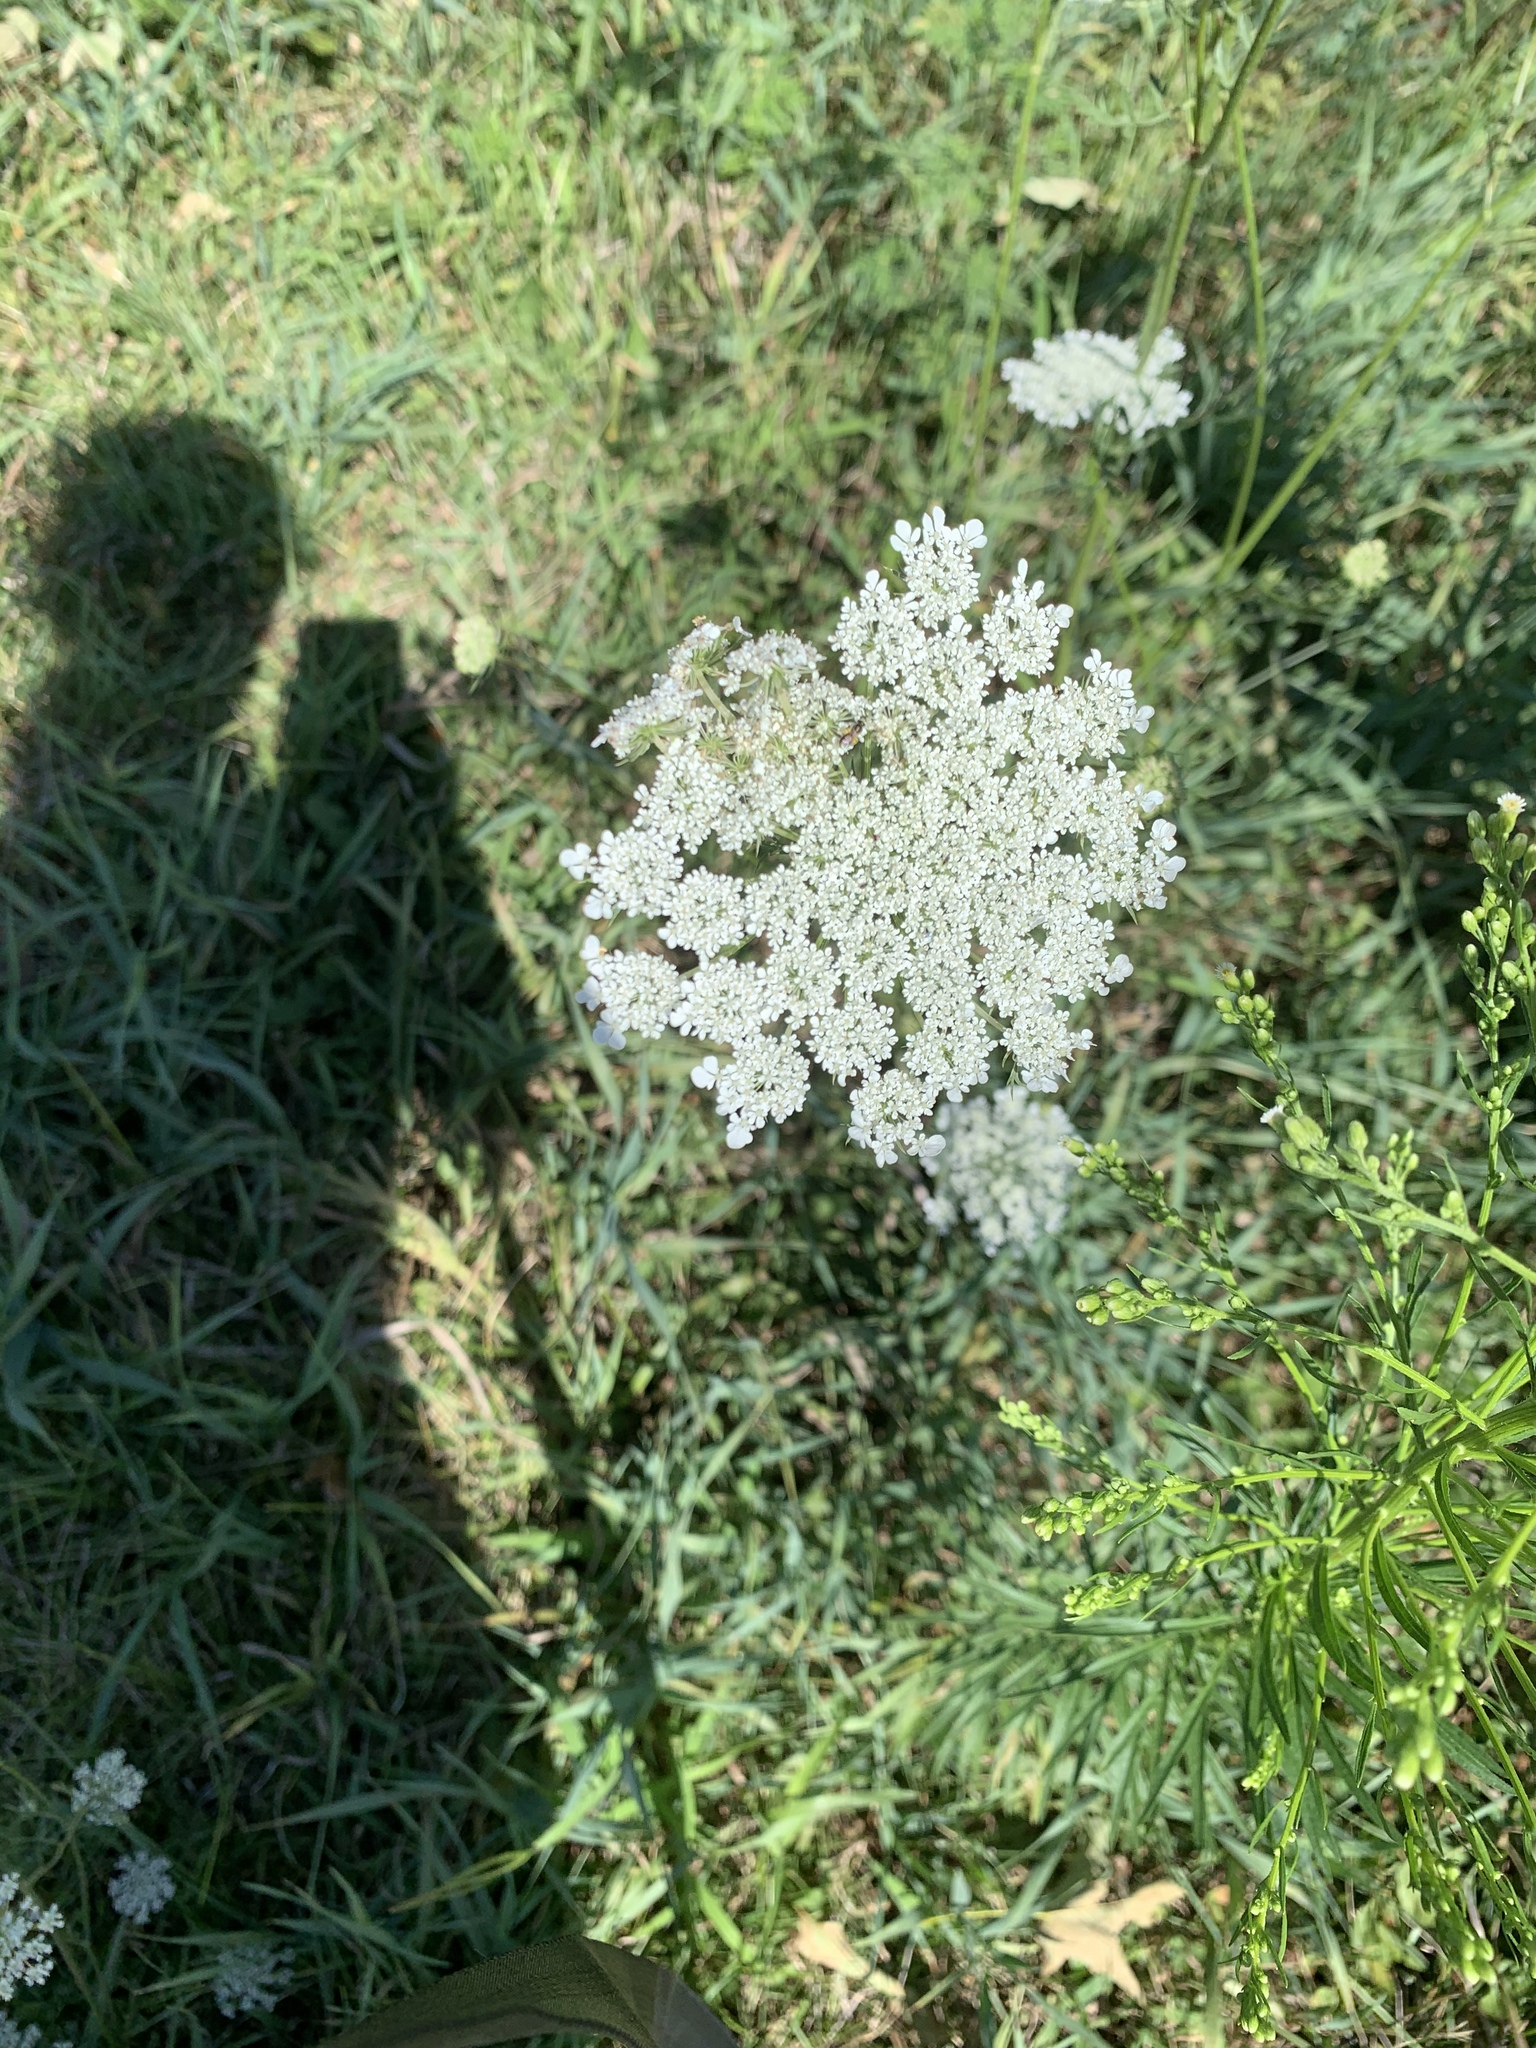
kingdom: Plantae
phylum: Tracheophyta
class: Magnoliopsida
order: Apiales
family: Apiaceae
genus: Daucus
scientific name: Daucus carota
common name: Wild carrot
